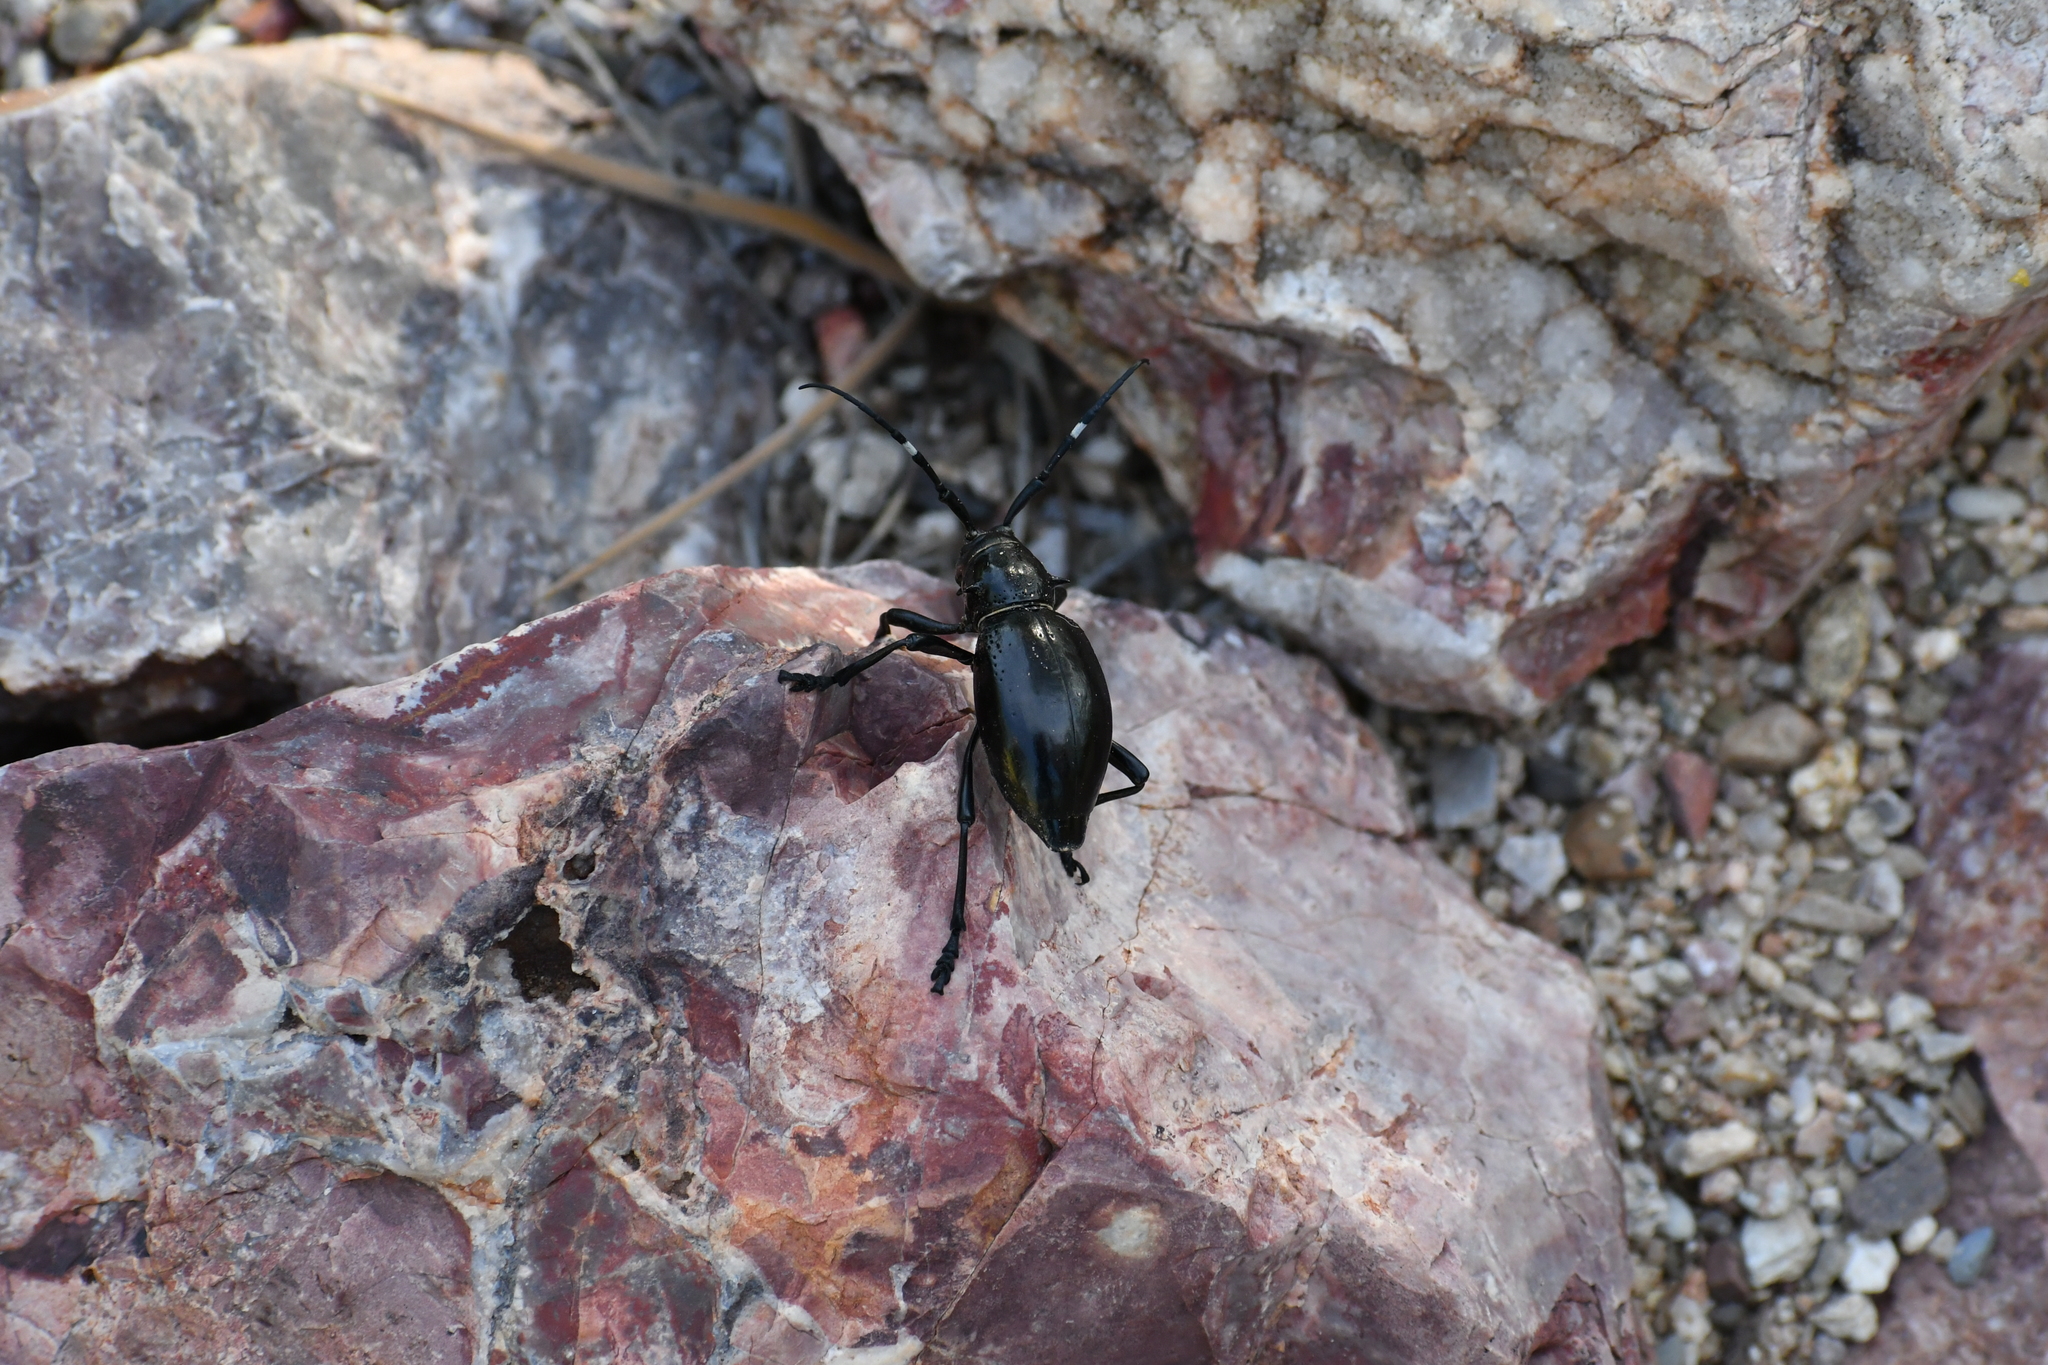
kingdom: Animalia
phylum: Arthropoda
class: Insecta
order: Coleoptera
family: Cerambycidae
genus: Moneilema
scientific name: Moneilema gigas
